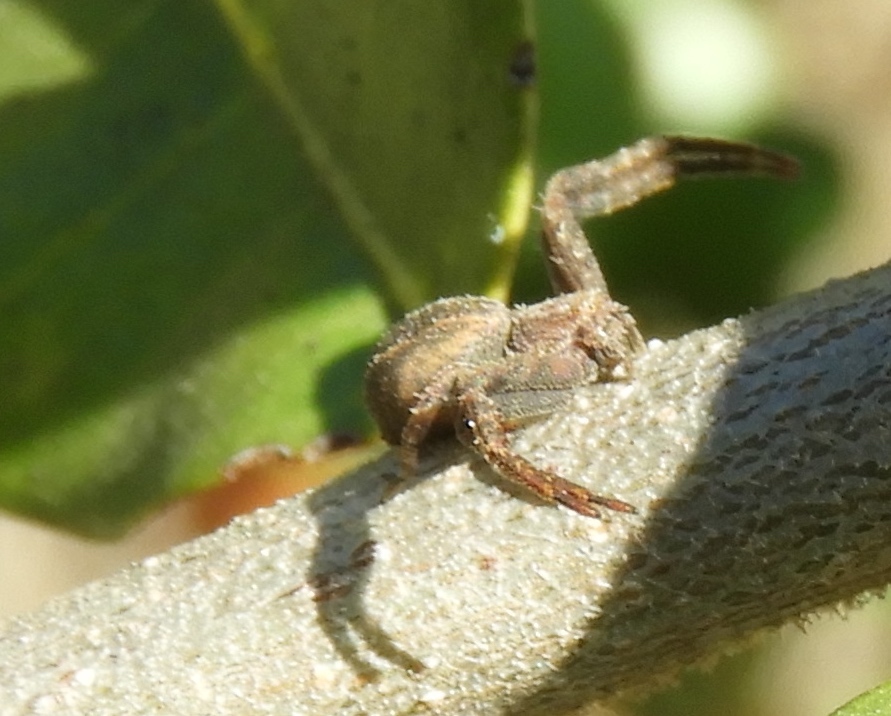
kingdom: Animalia
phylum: Arthropoda
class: Arachnida
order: Araneae
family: Thomisidae
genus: Isaloides
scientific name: Isaloides
